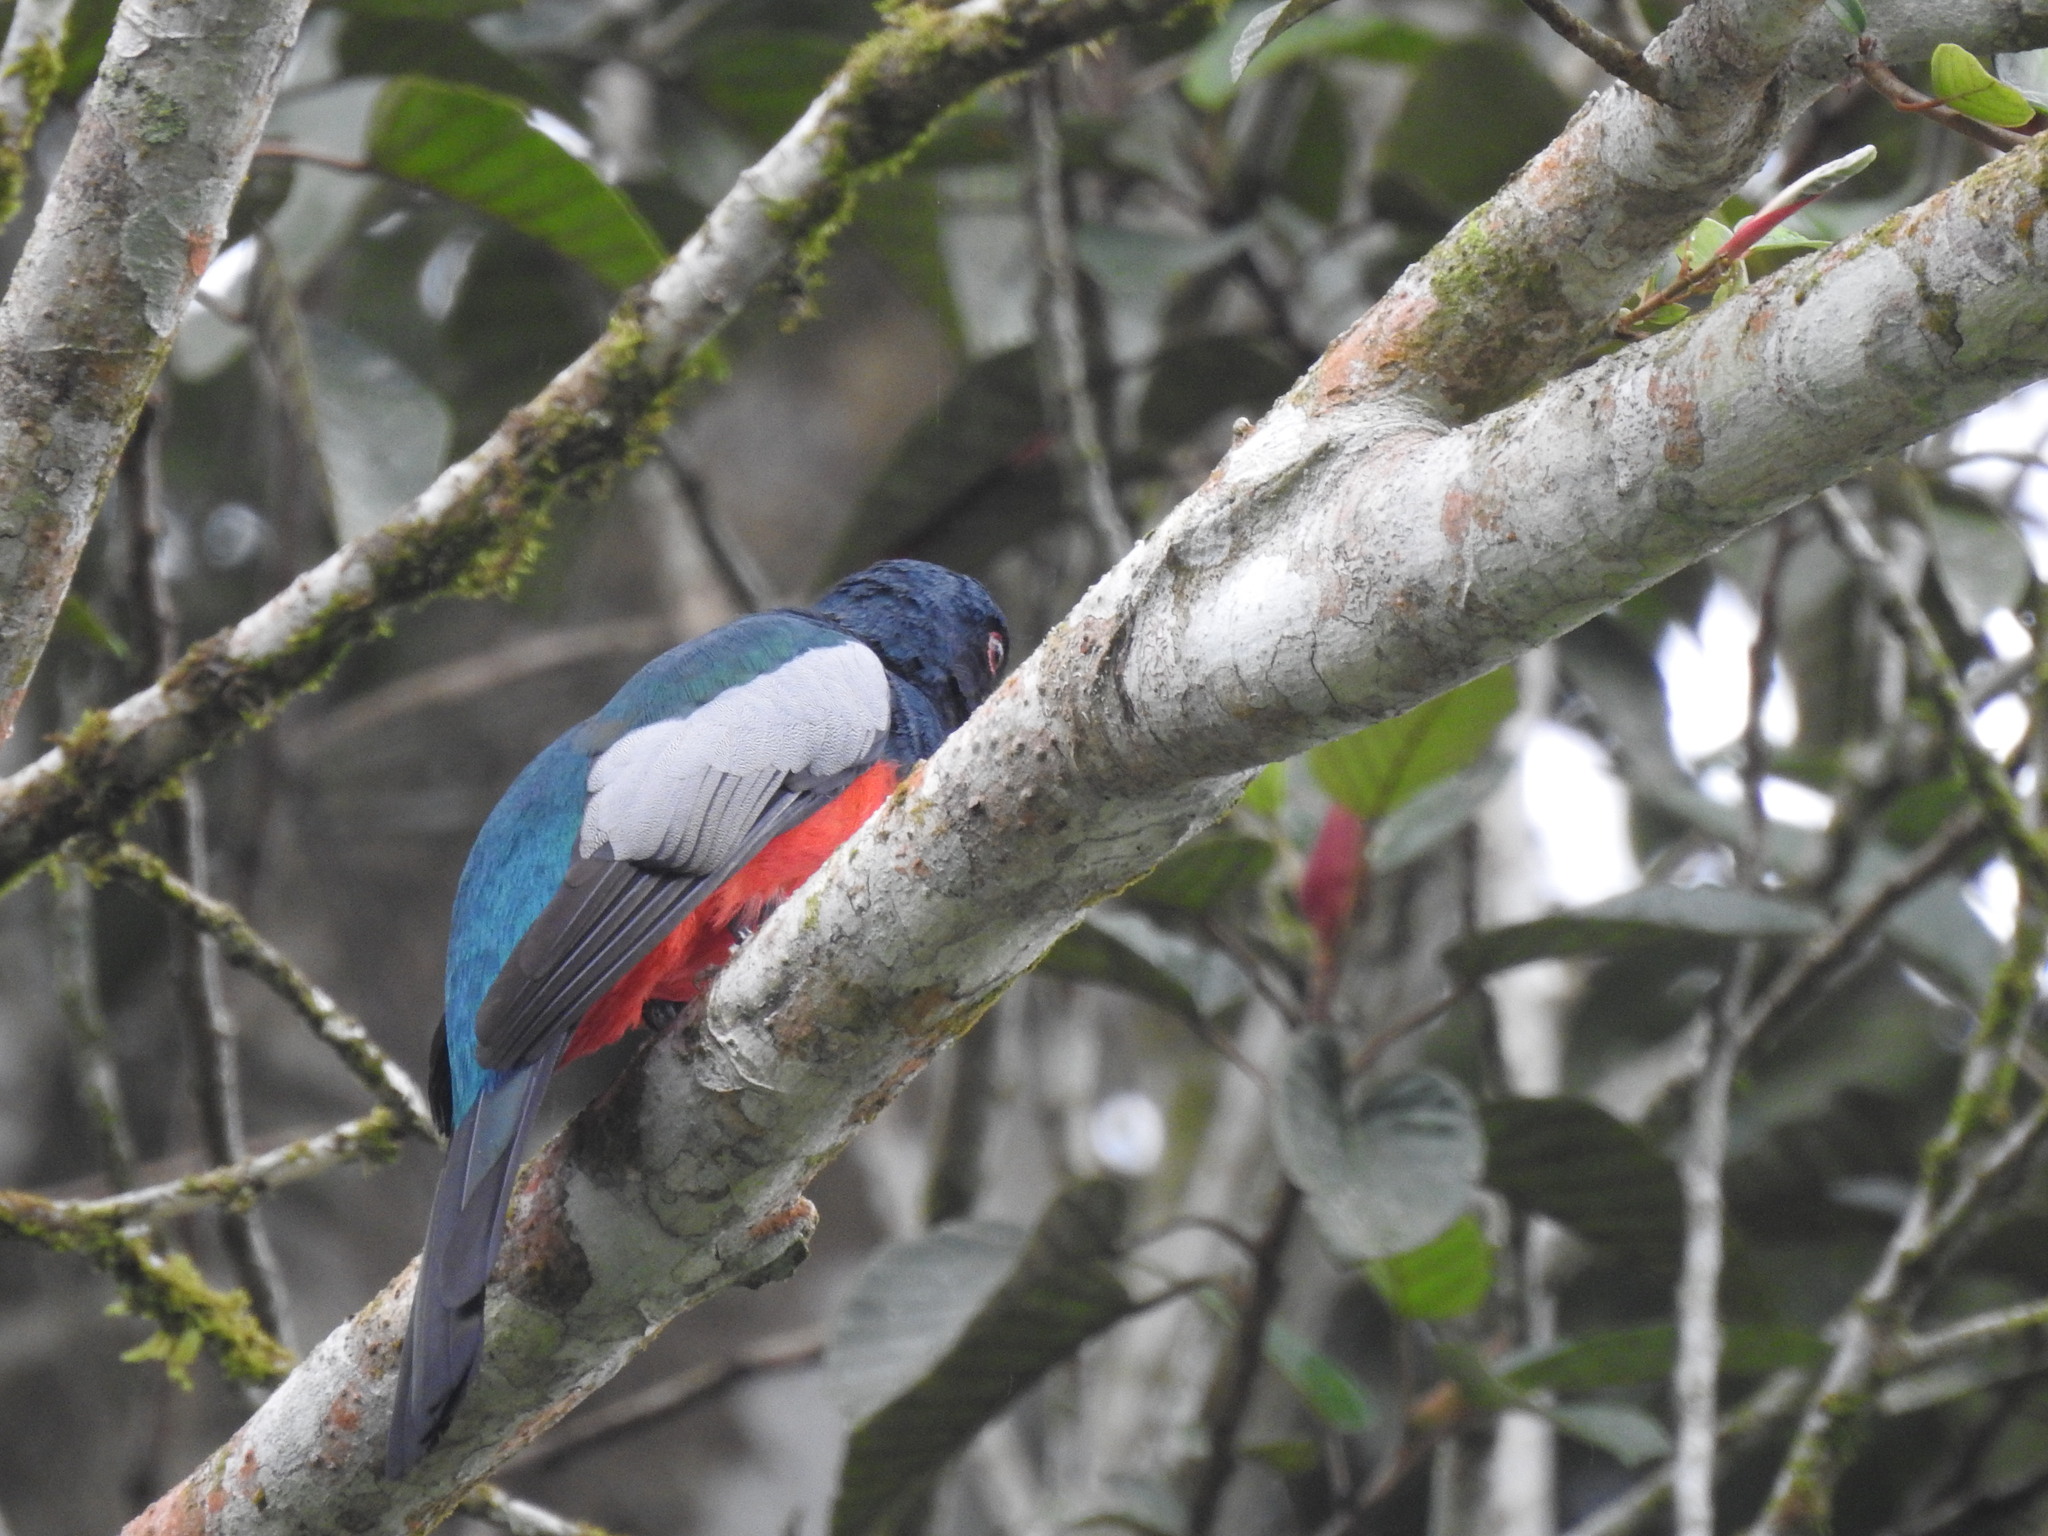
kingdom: Animalia
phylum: Chordata
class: Aves
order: Trogoniformes
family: Trogonidae
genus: Trogon
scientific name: Trogon massena
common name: Slaty-tailed trogon
